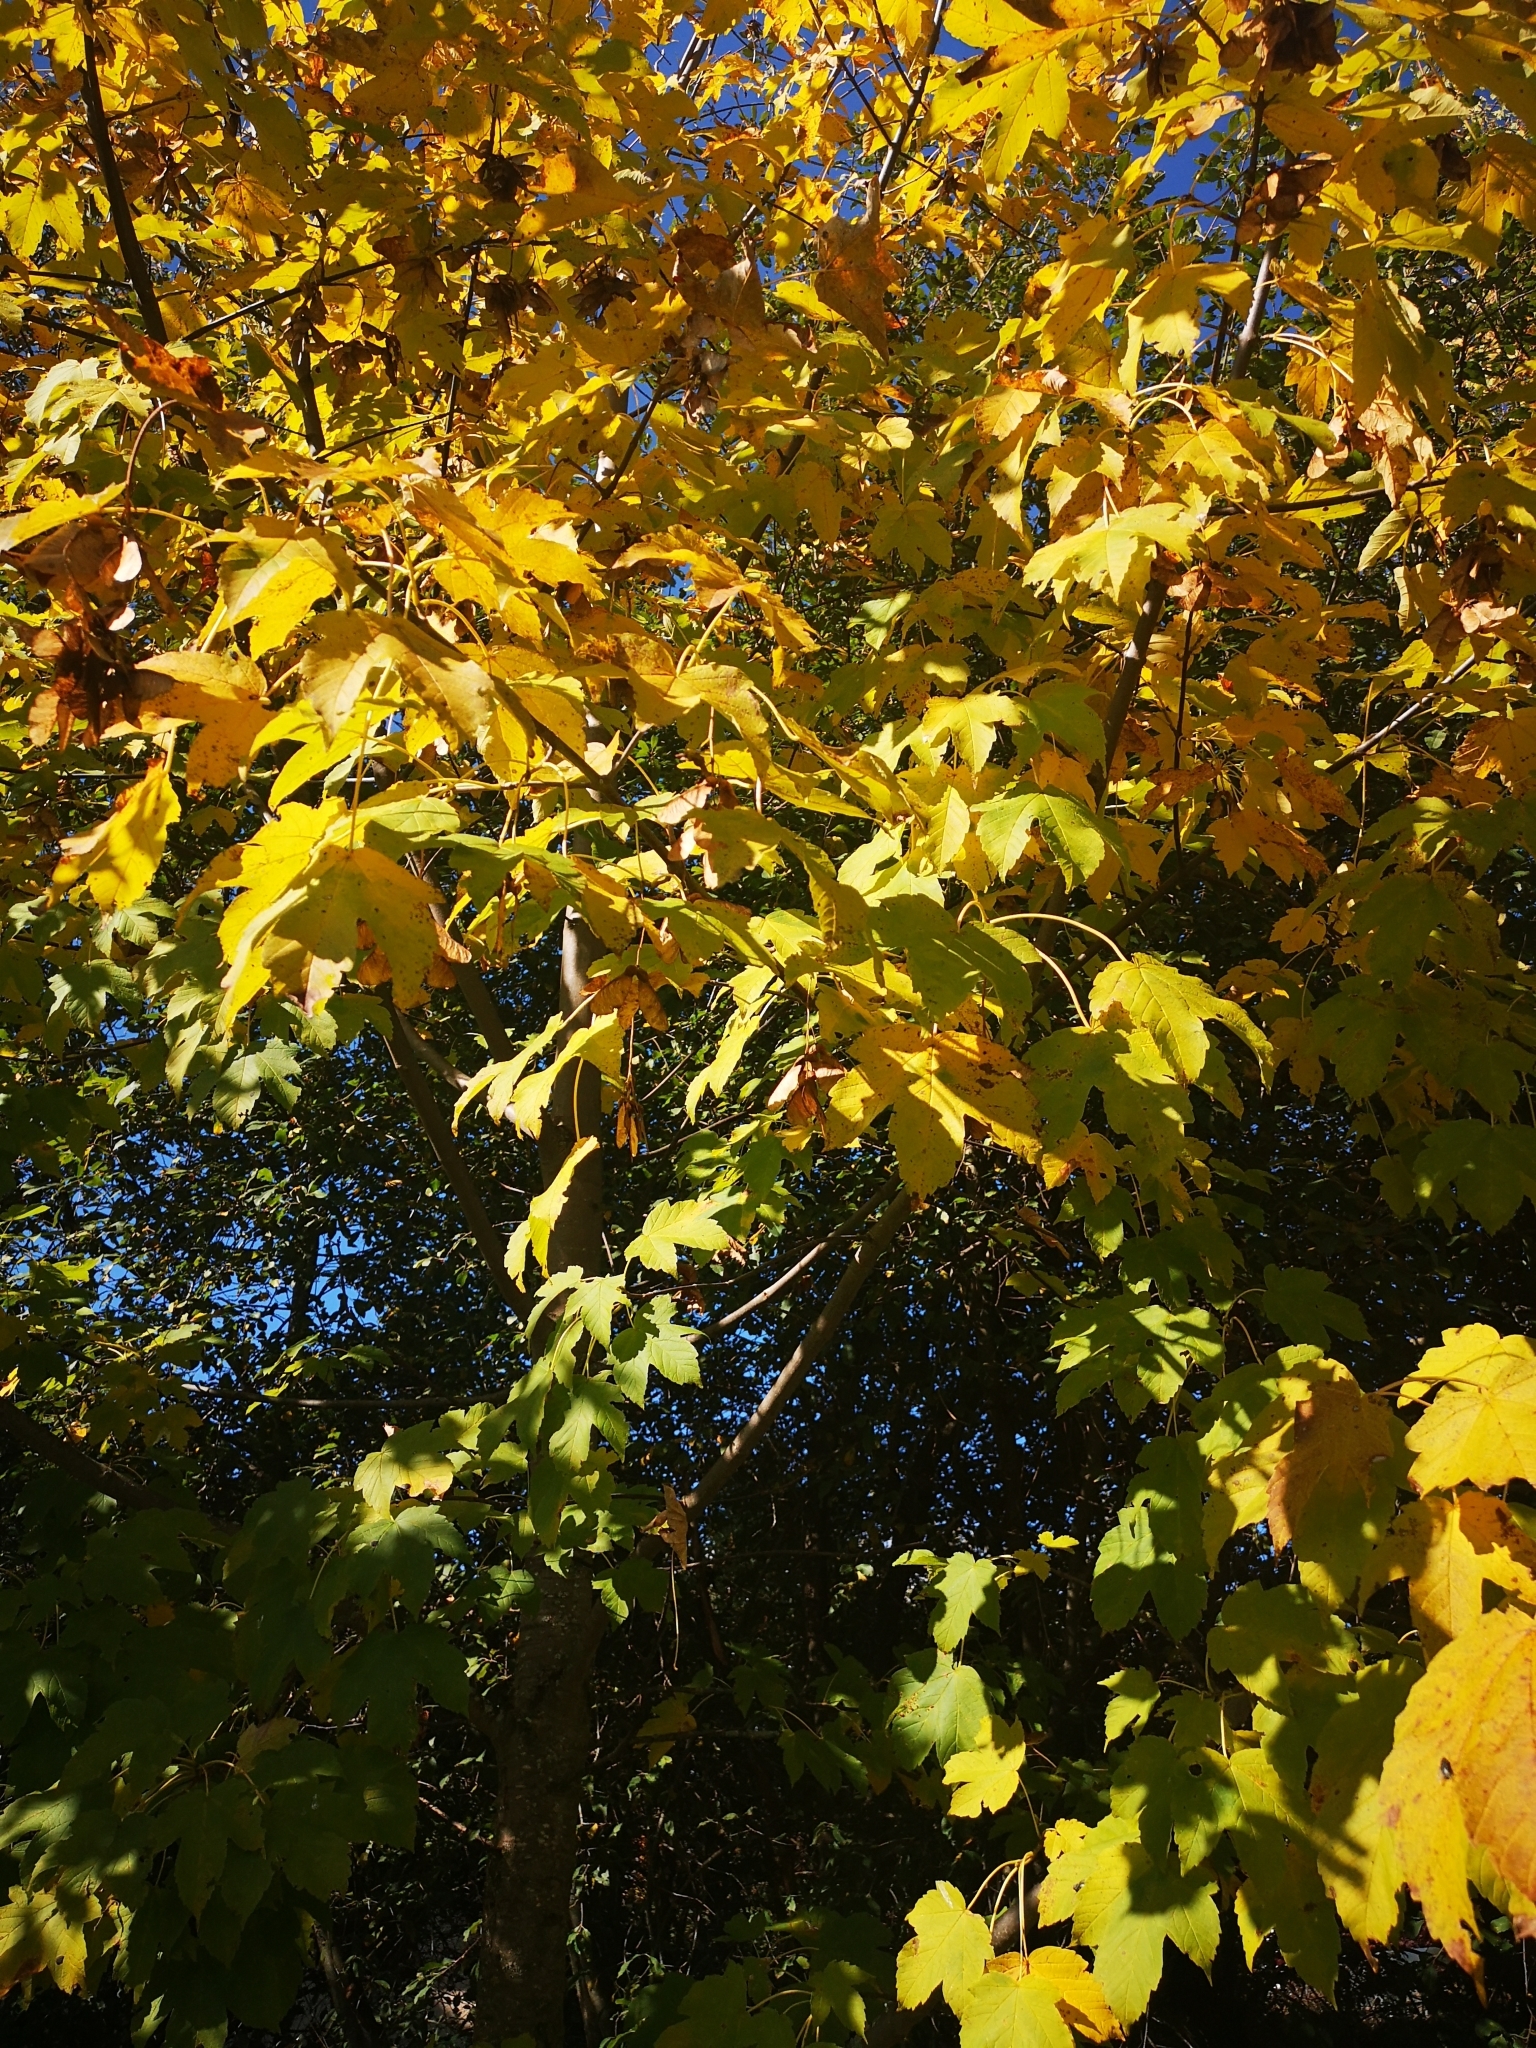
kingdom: Fungi
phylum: Ascomycota
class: Leotiomycetes
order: Rhytismatales
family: Rhytismataceae
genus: Rhytisma
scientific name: Rhytisma acerinum
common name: European tar spot
